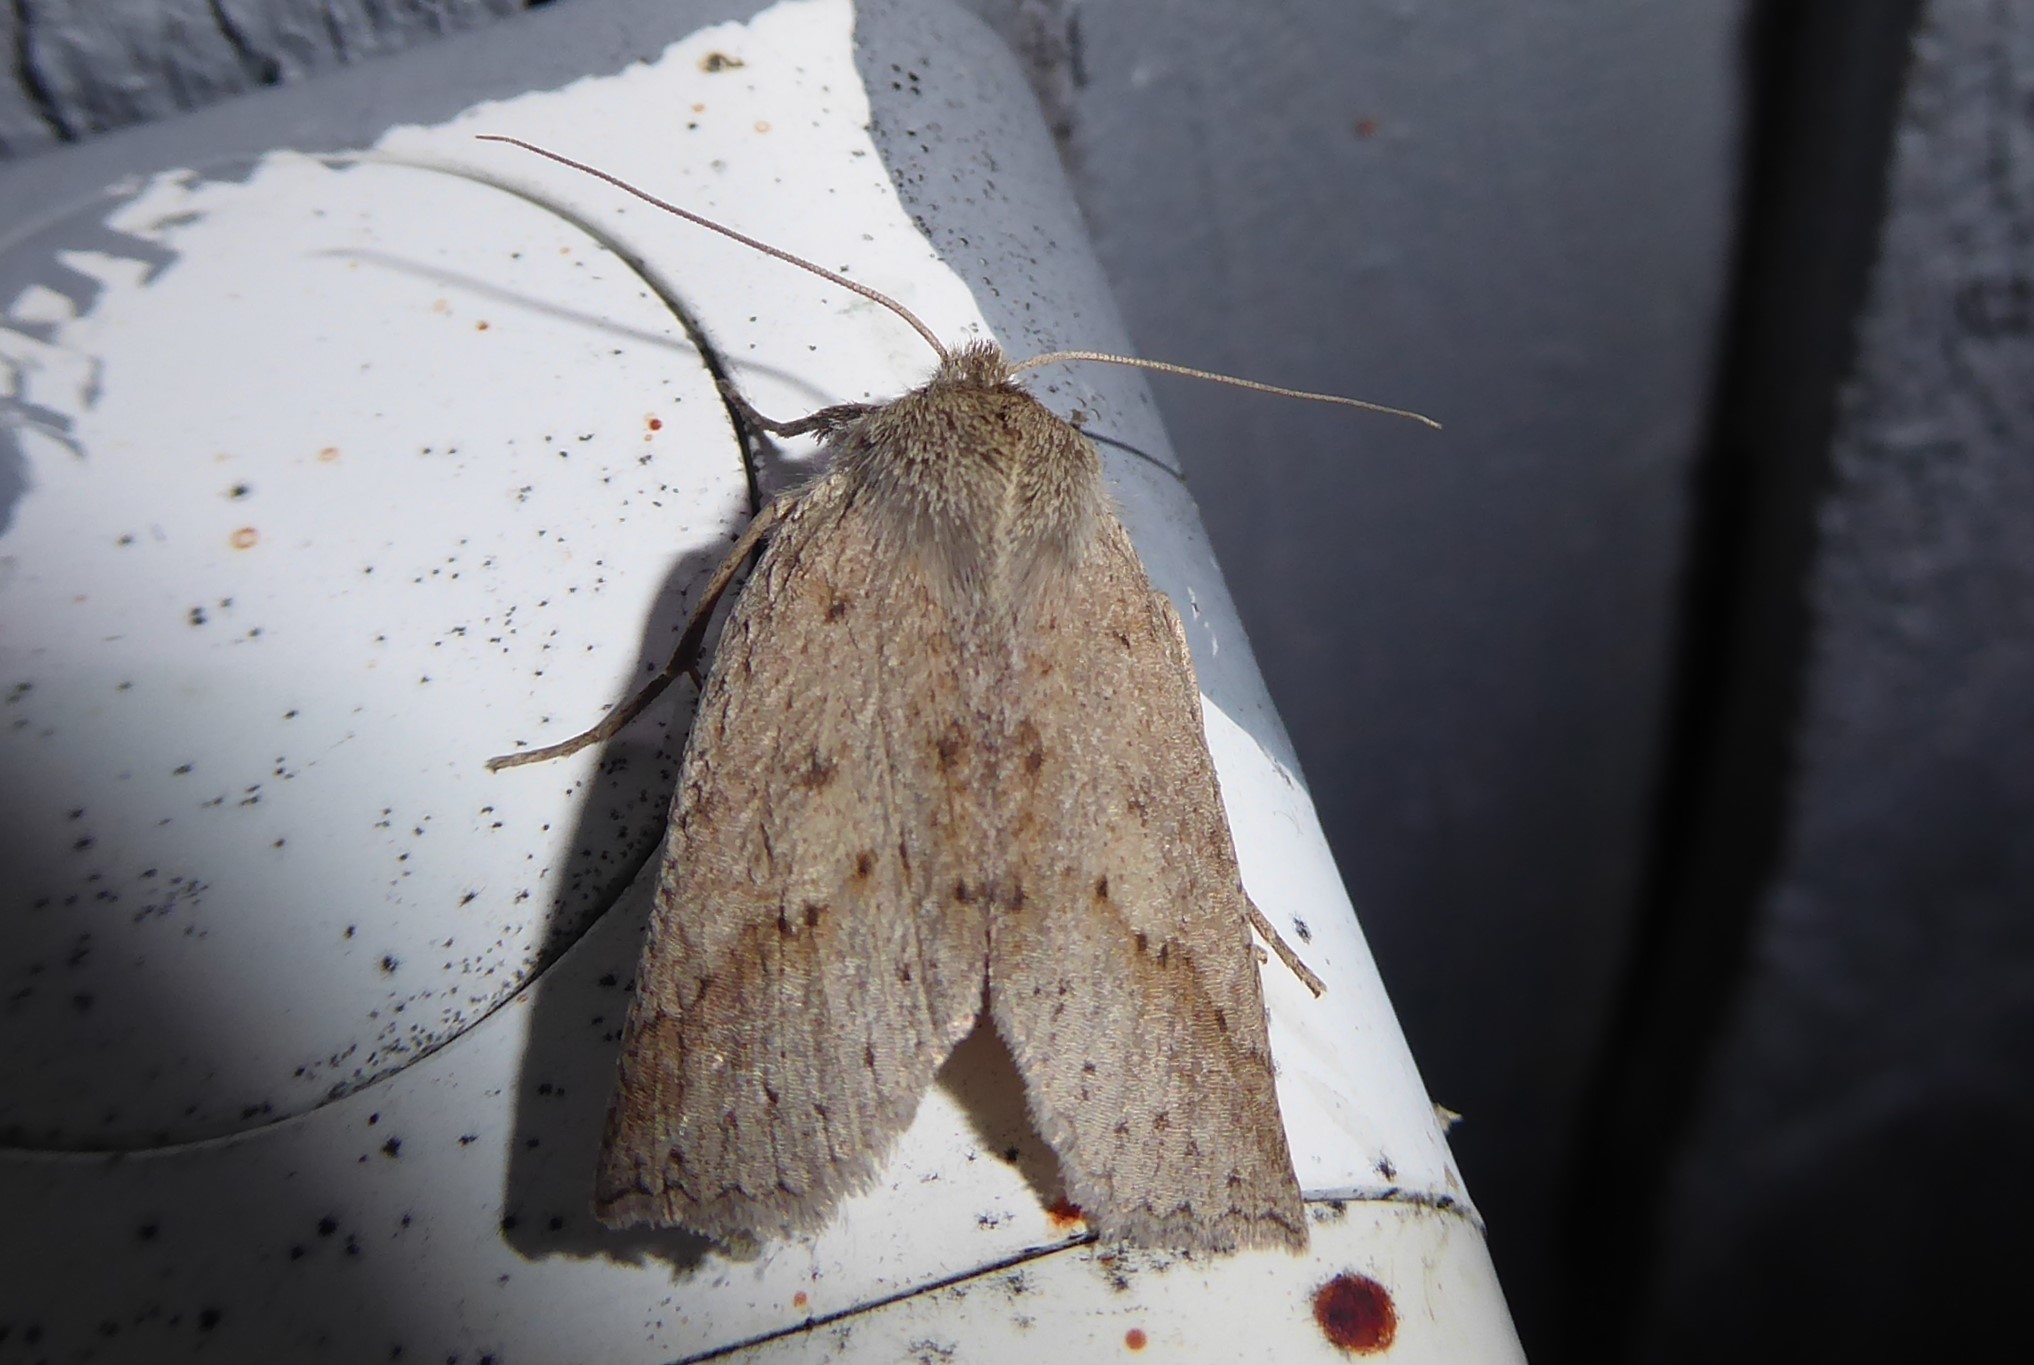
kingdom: Animalia
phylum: Arthropoda
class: Insecta
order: Lepidoptera
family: Geometridae
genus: Declana
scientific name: Declana leptomera
